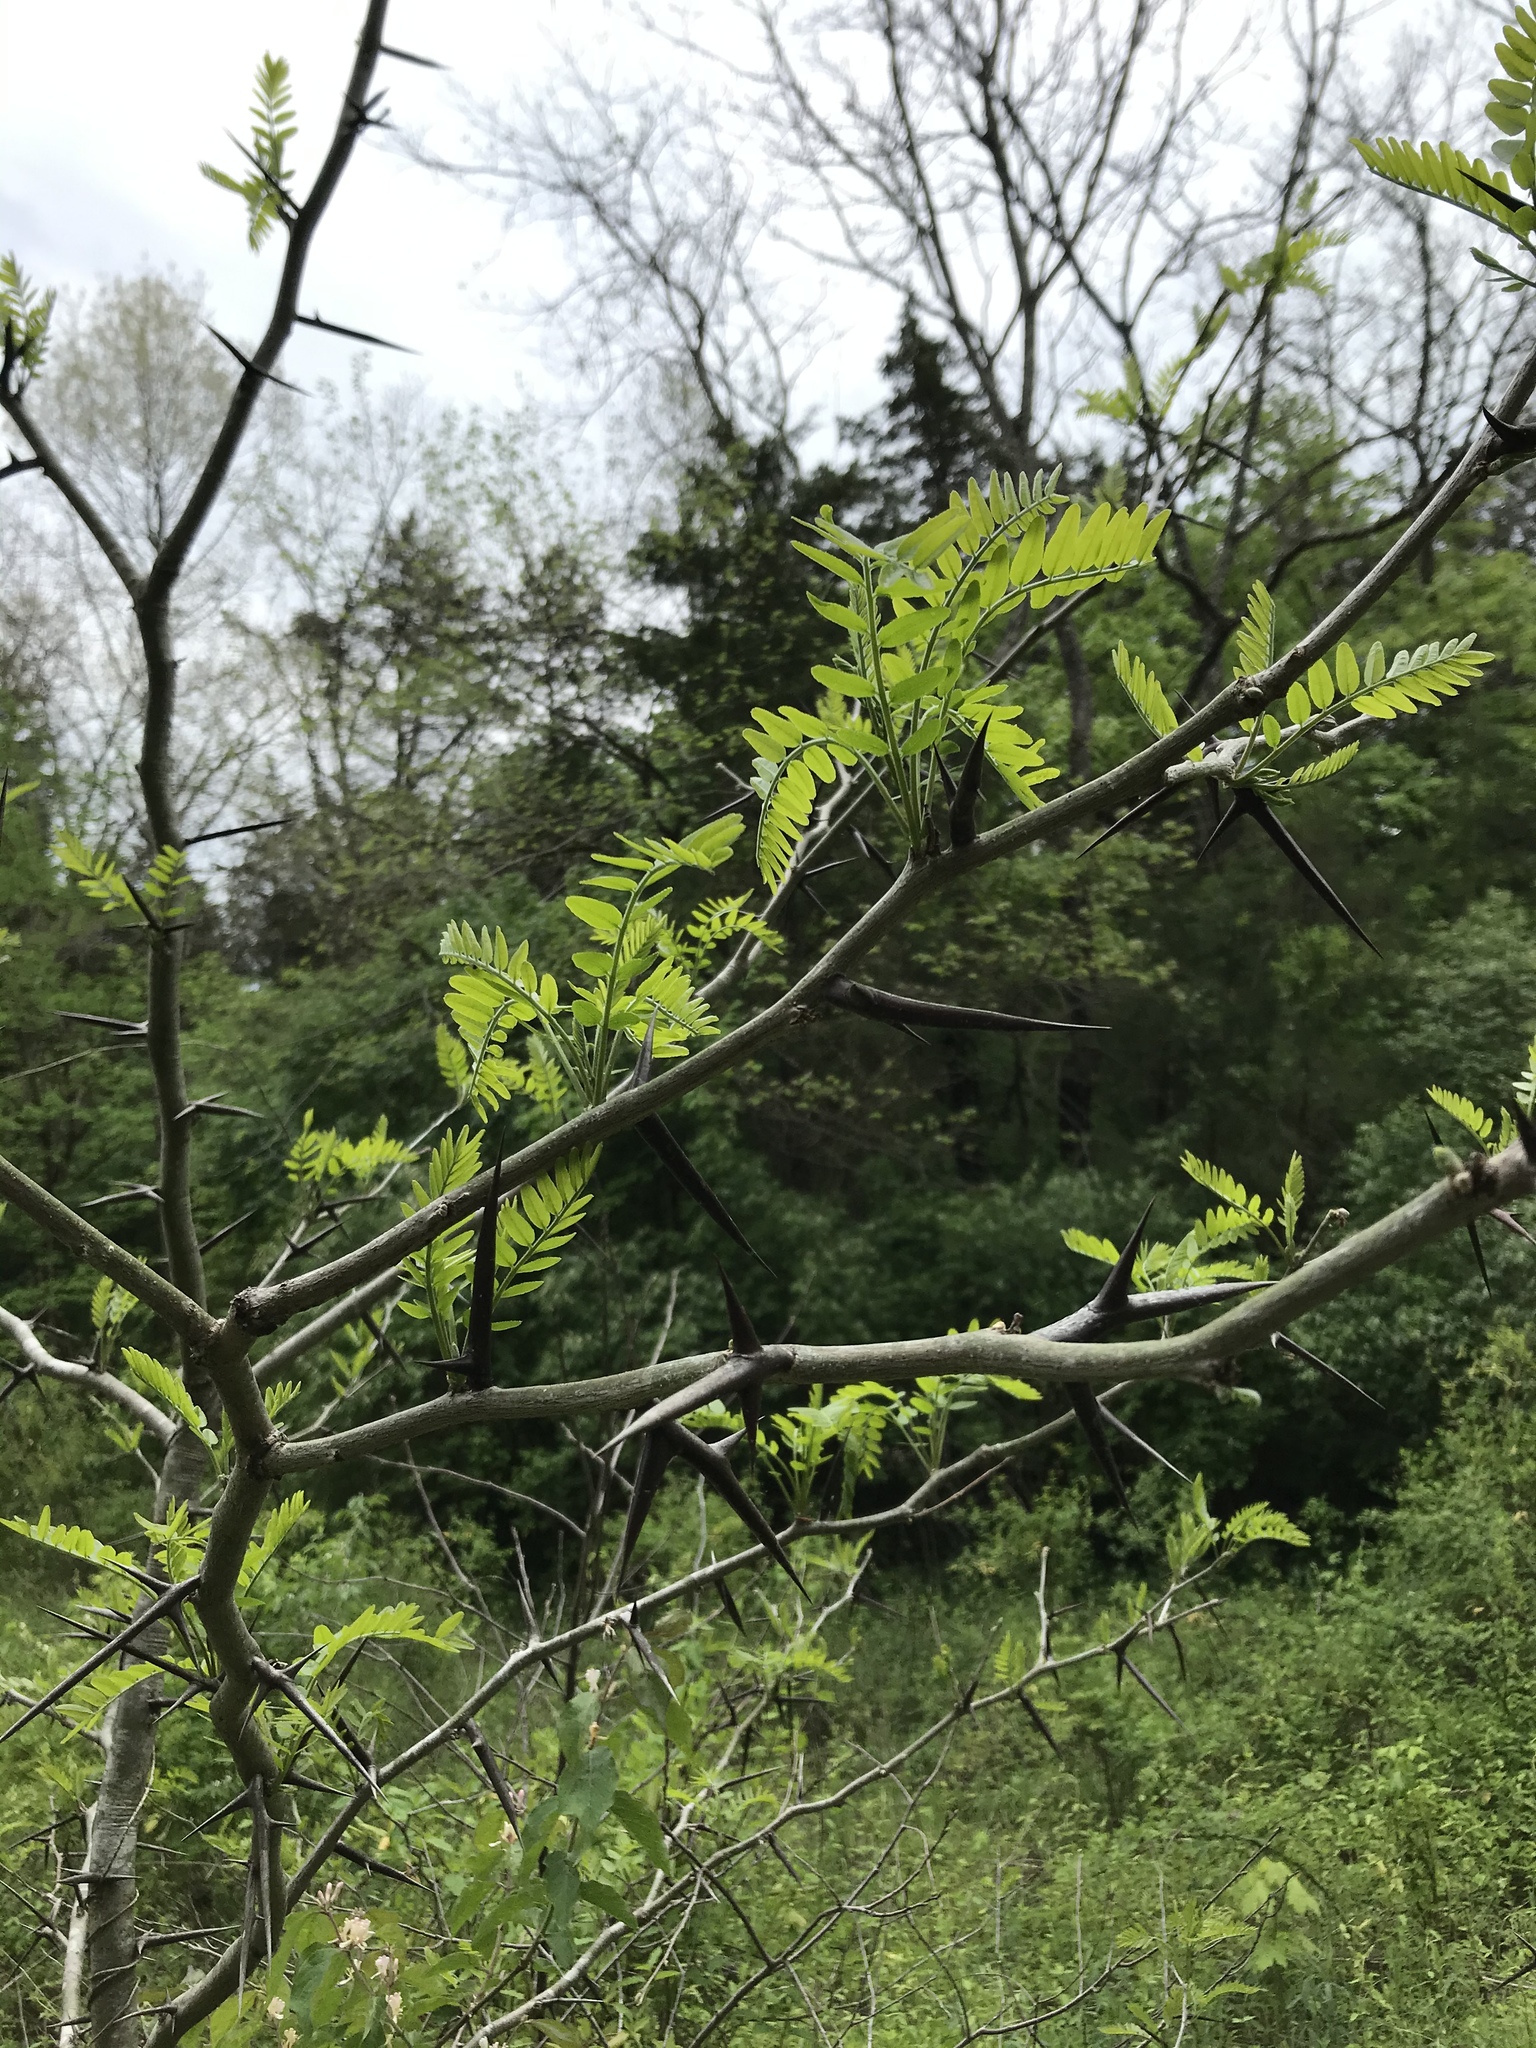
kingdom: Plantae
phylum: Tracheophyta
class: Magnoliopsida
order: Fabales
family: Fabaceae
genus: Gleditsia
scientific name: Gleditsia triacanthos
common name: Common honeylocust
